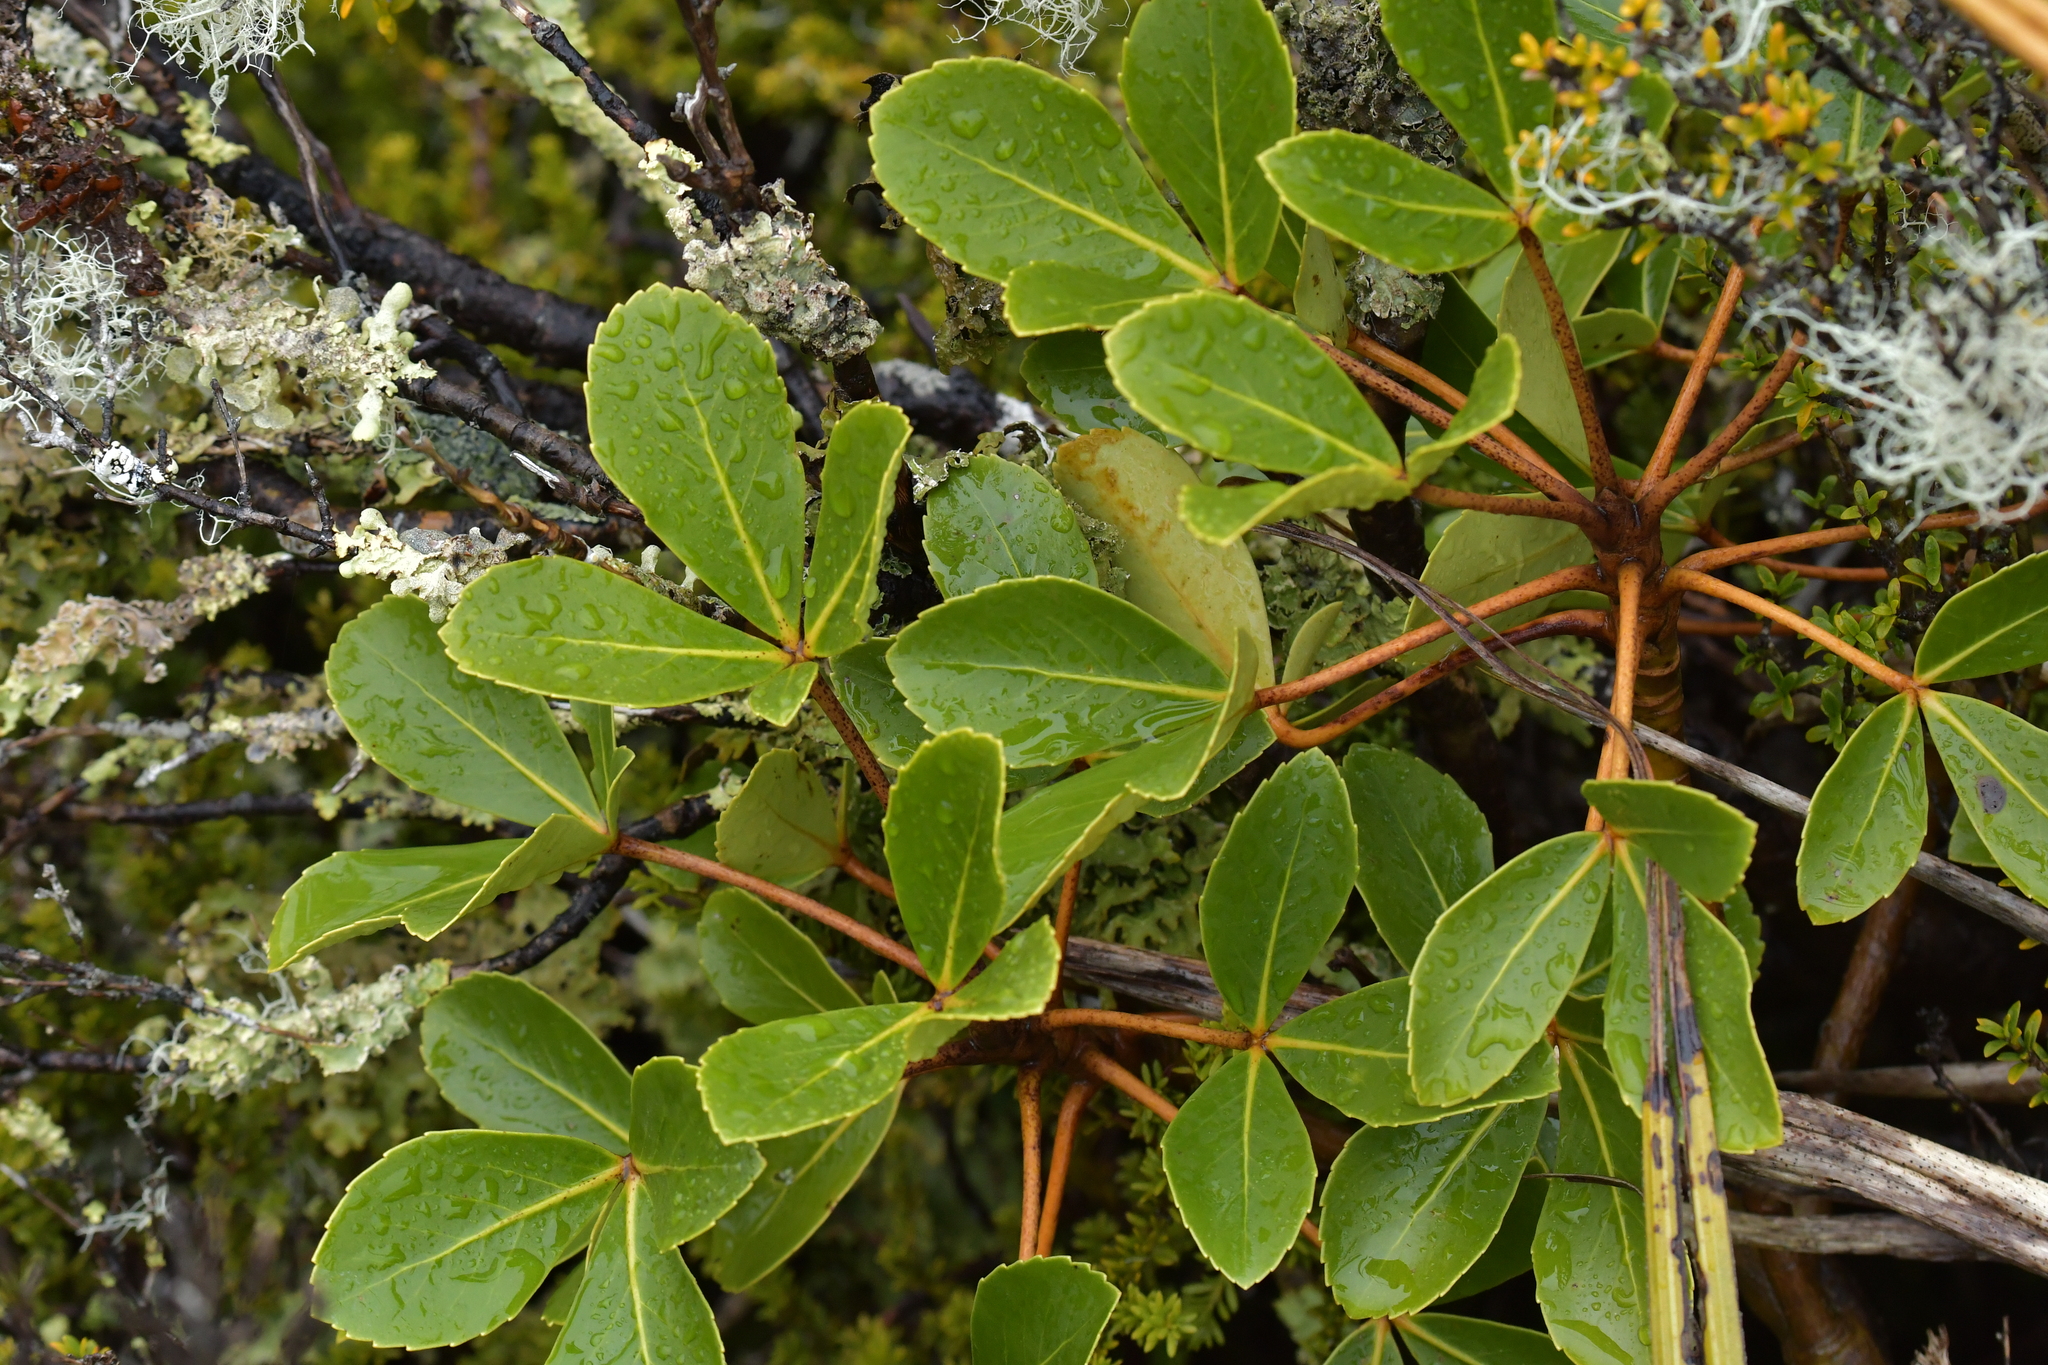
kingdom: Plantae
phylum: Tracheophyta
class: Magnoliopsida
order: Apiales
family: Araliaceae
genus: Neopanax
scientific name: Neopanax colensoi
